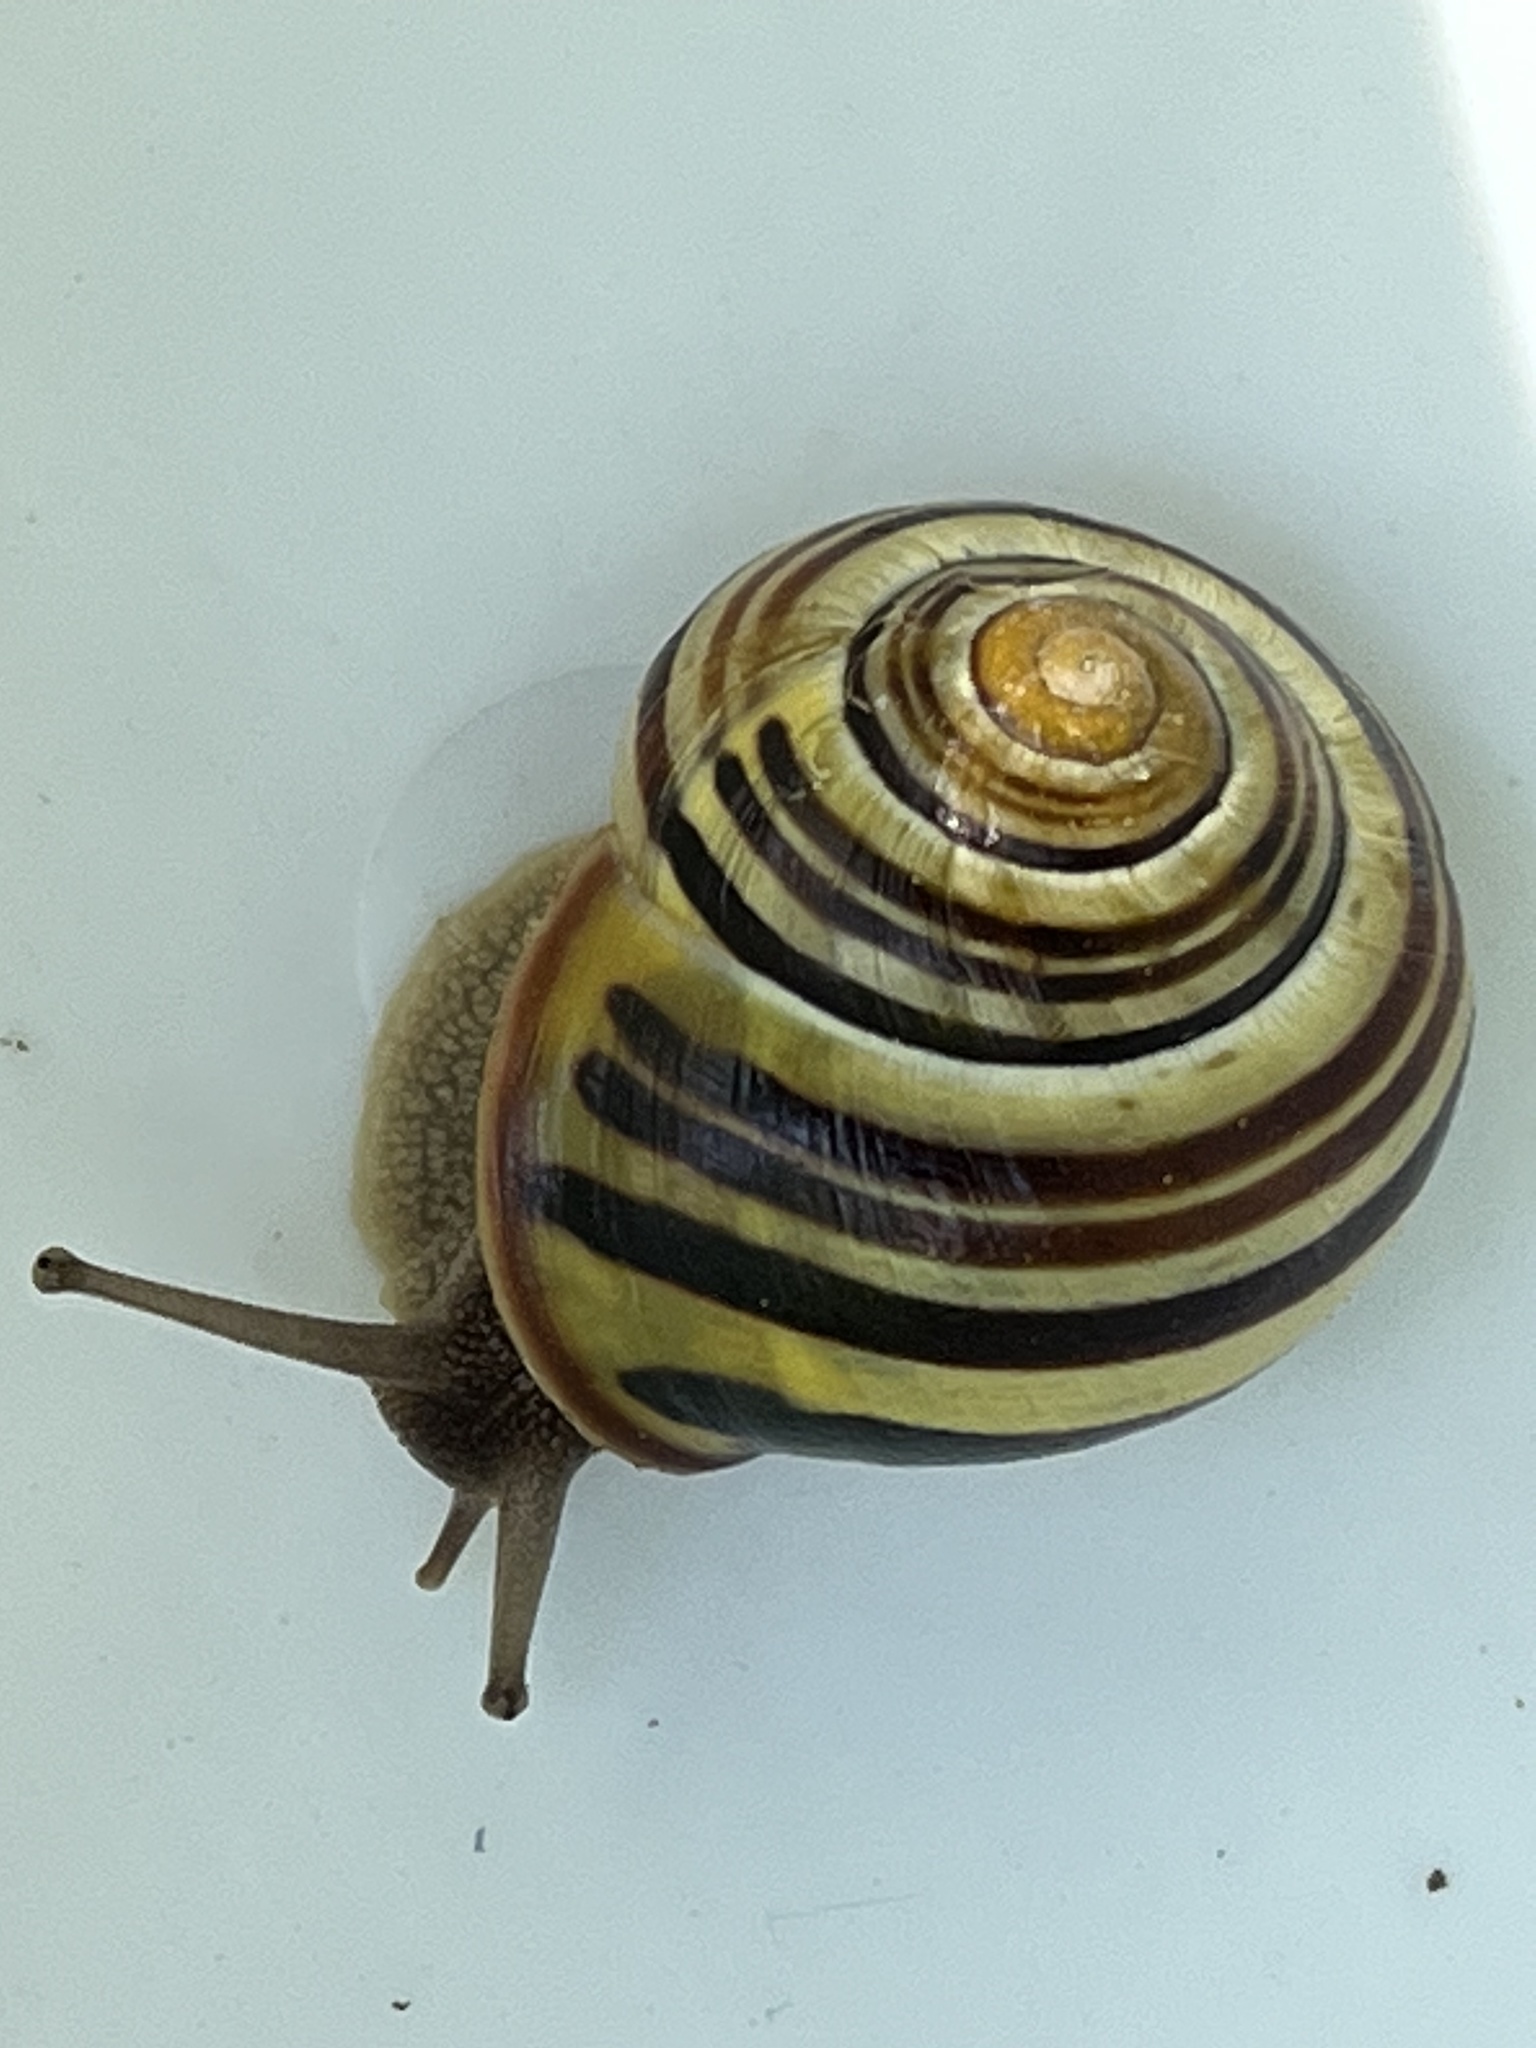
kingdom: Animalia
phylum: Mollusca
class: Gastropoda
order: Stylommatophora
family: Helicidae
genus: Cepaea
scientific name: Cepaea nemoralis
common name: Grovesnail
